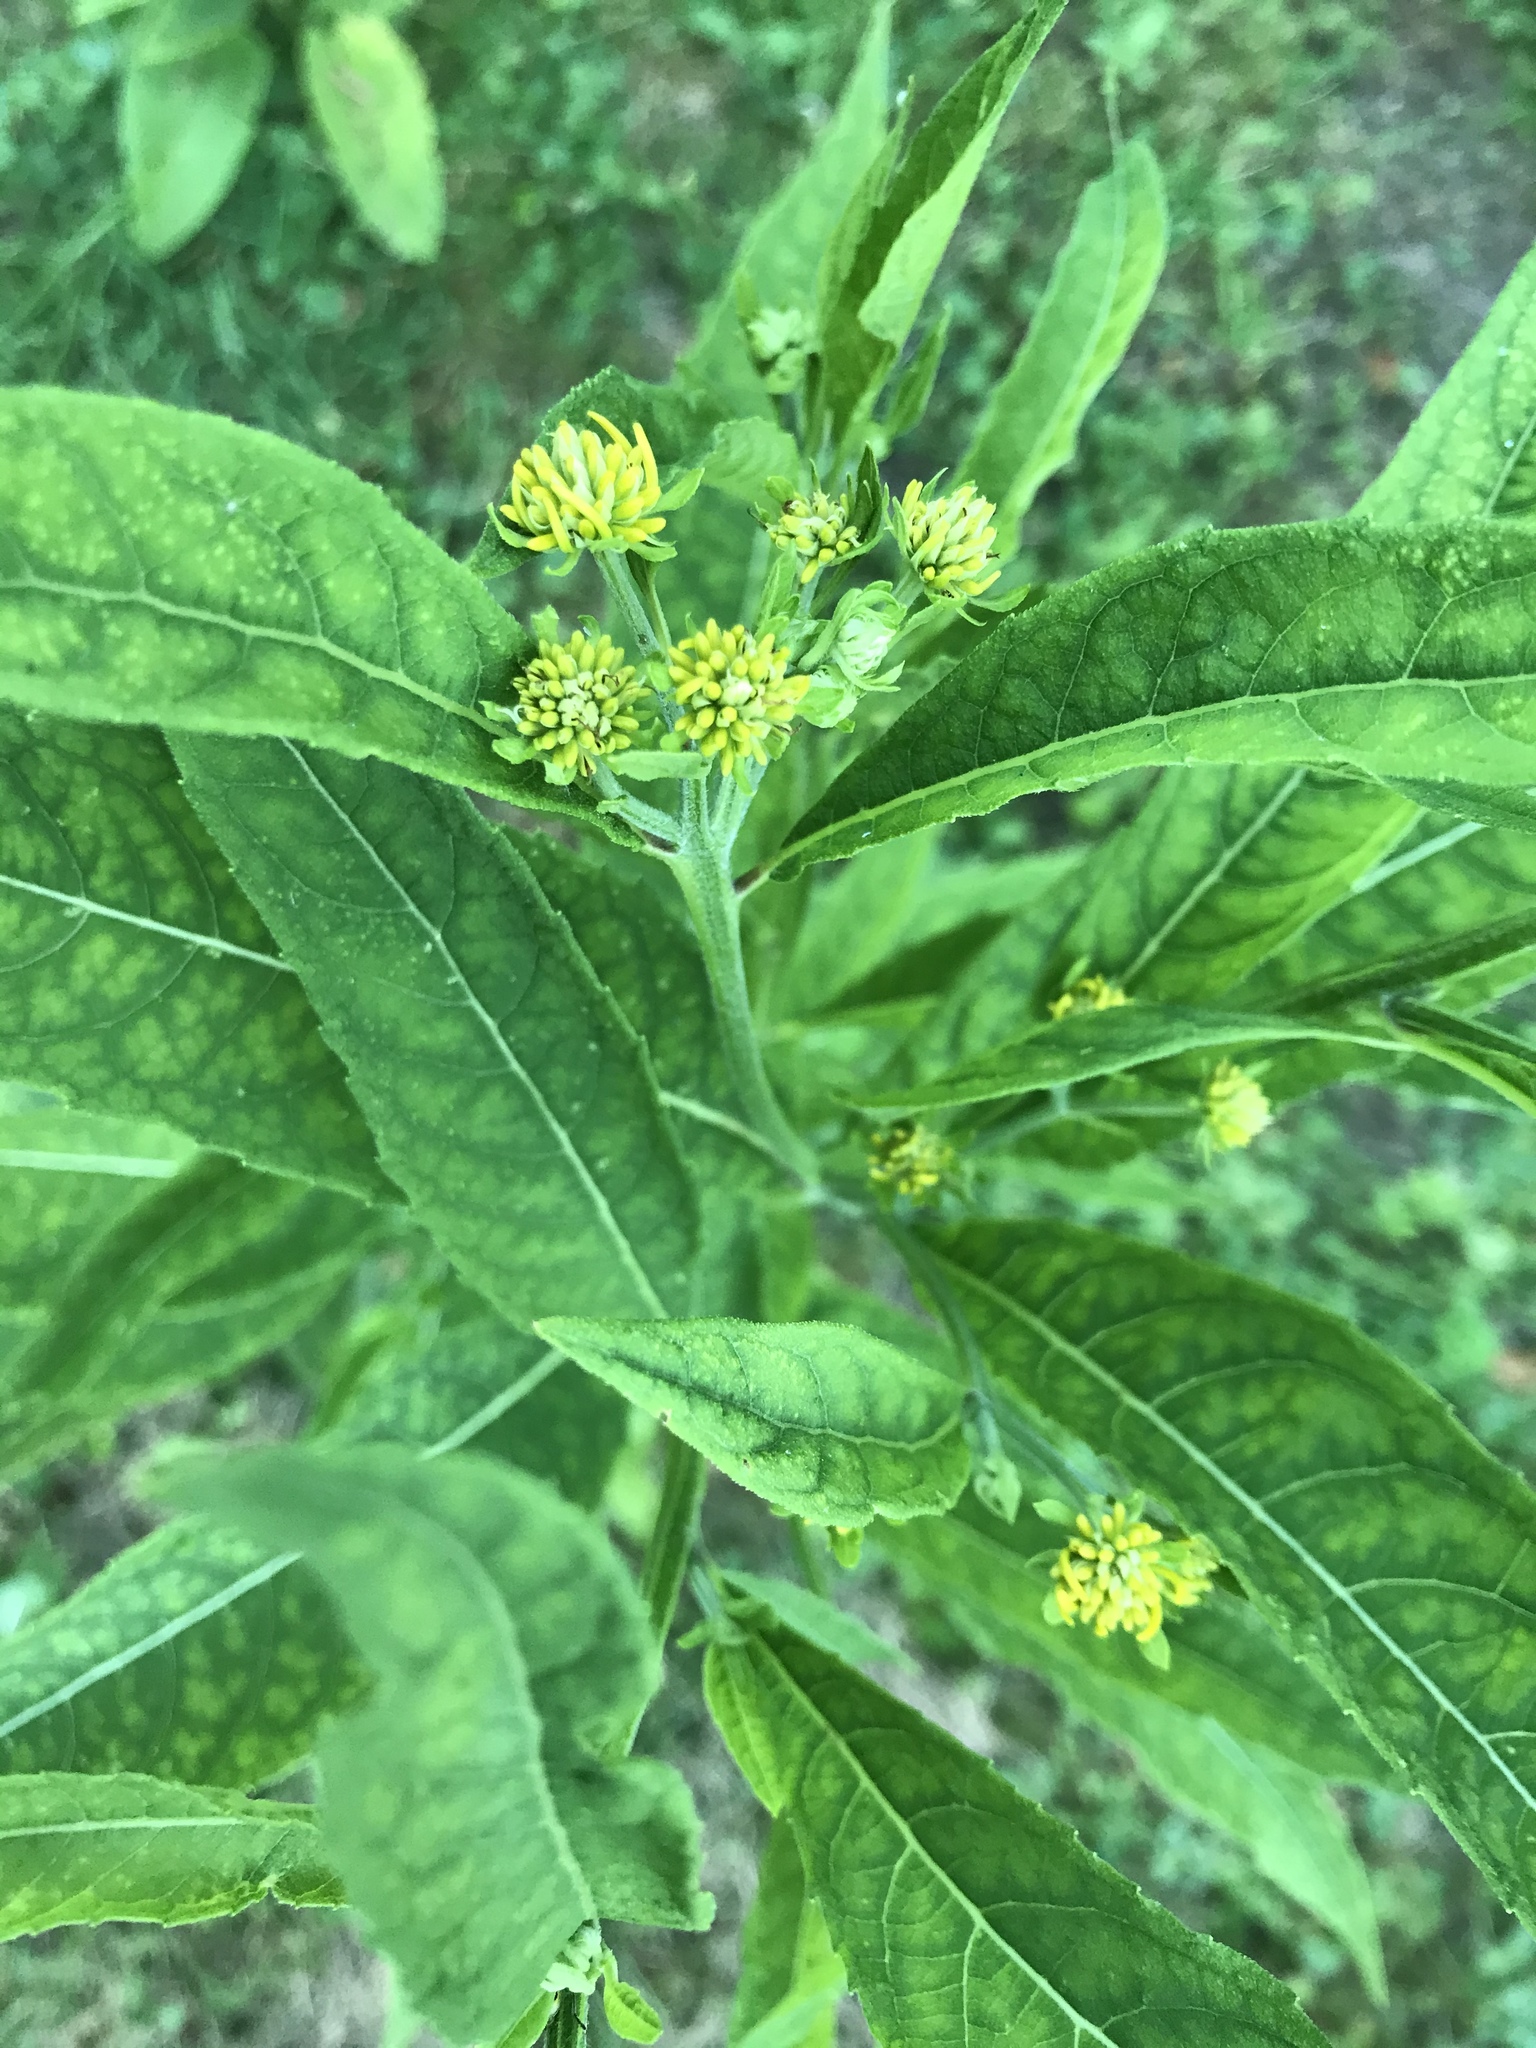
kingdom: Plantae
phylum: Tracheophyta
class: Magnoliopsida
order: Asterales
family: Asteraceae
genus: Verbesina
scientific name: Verbesina alternifolia
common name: Wingstem
